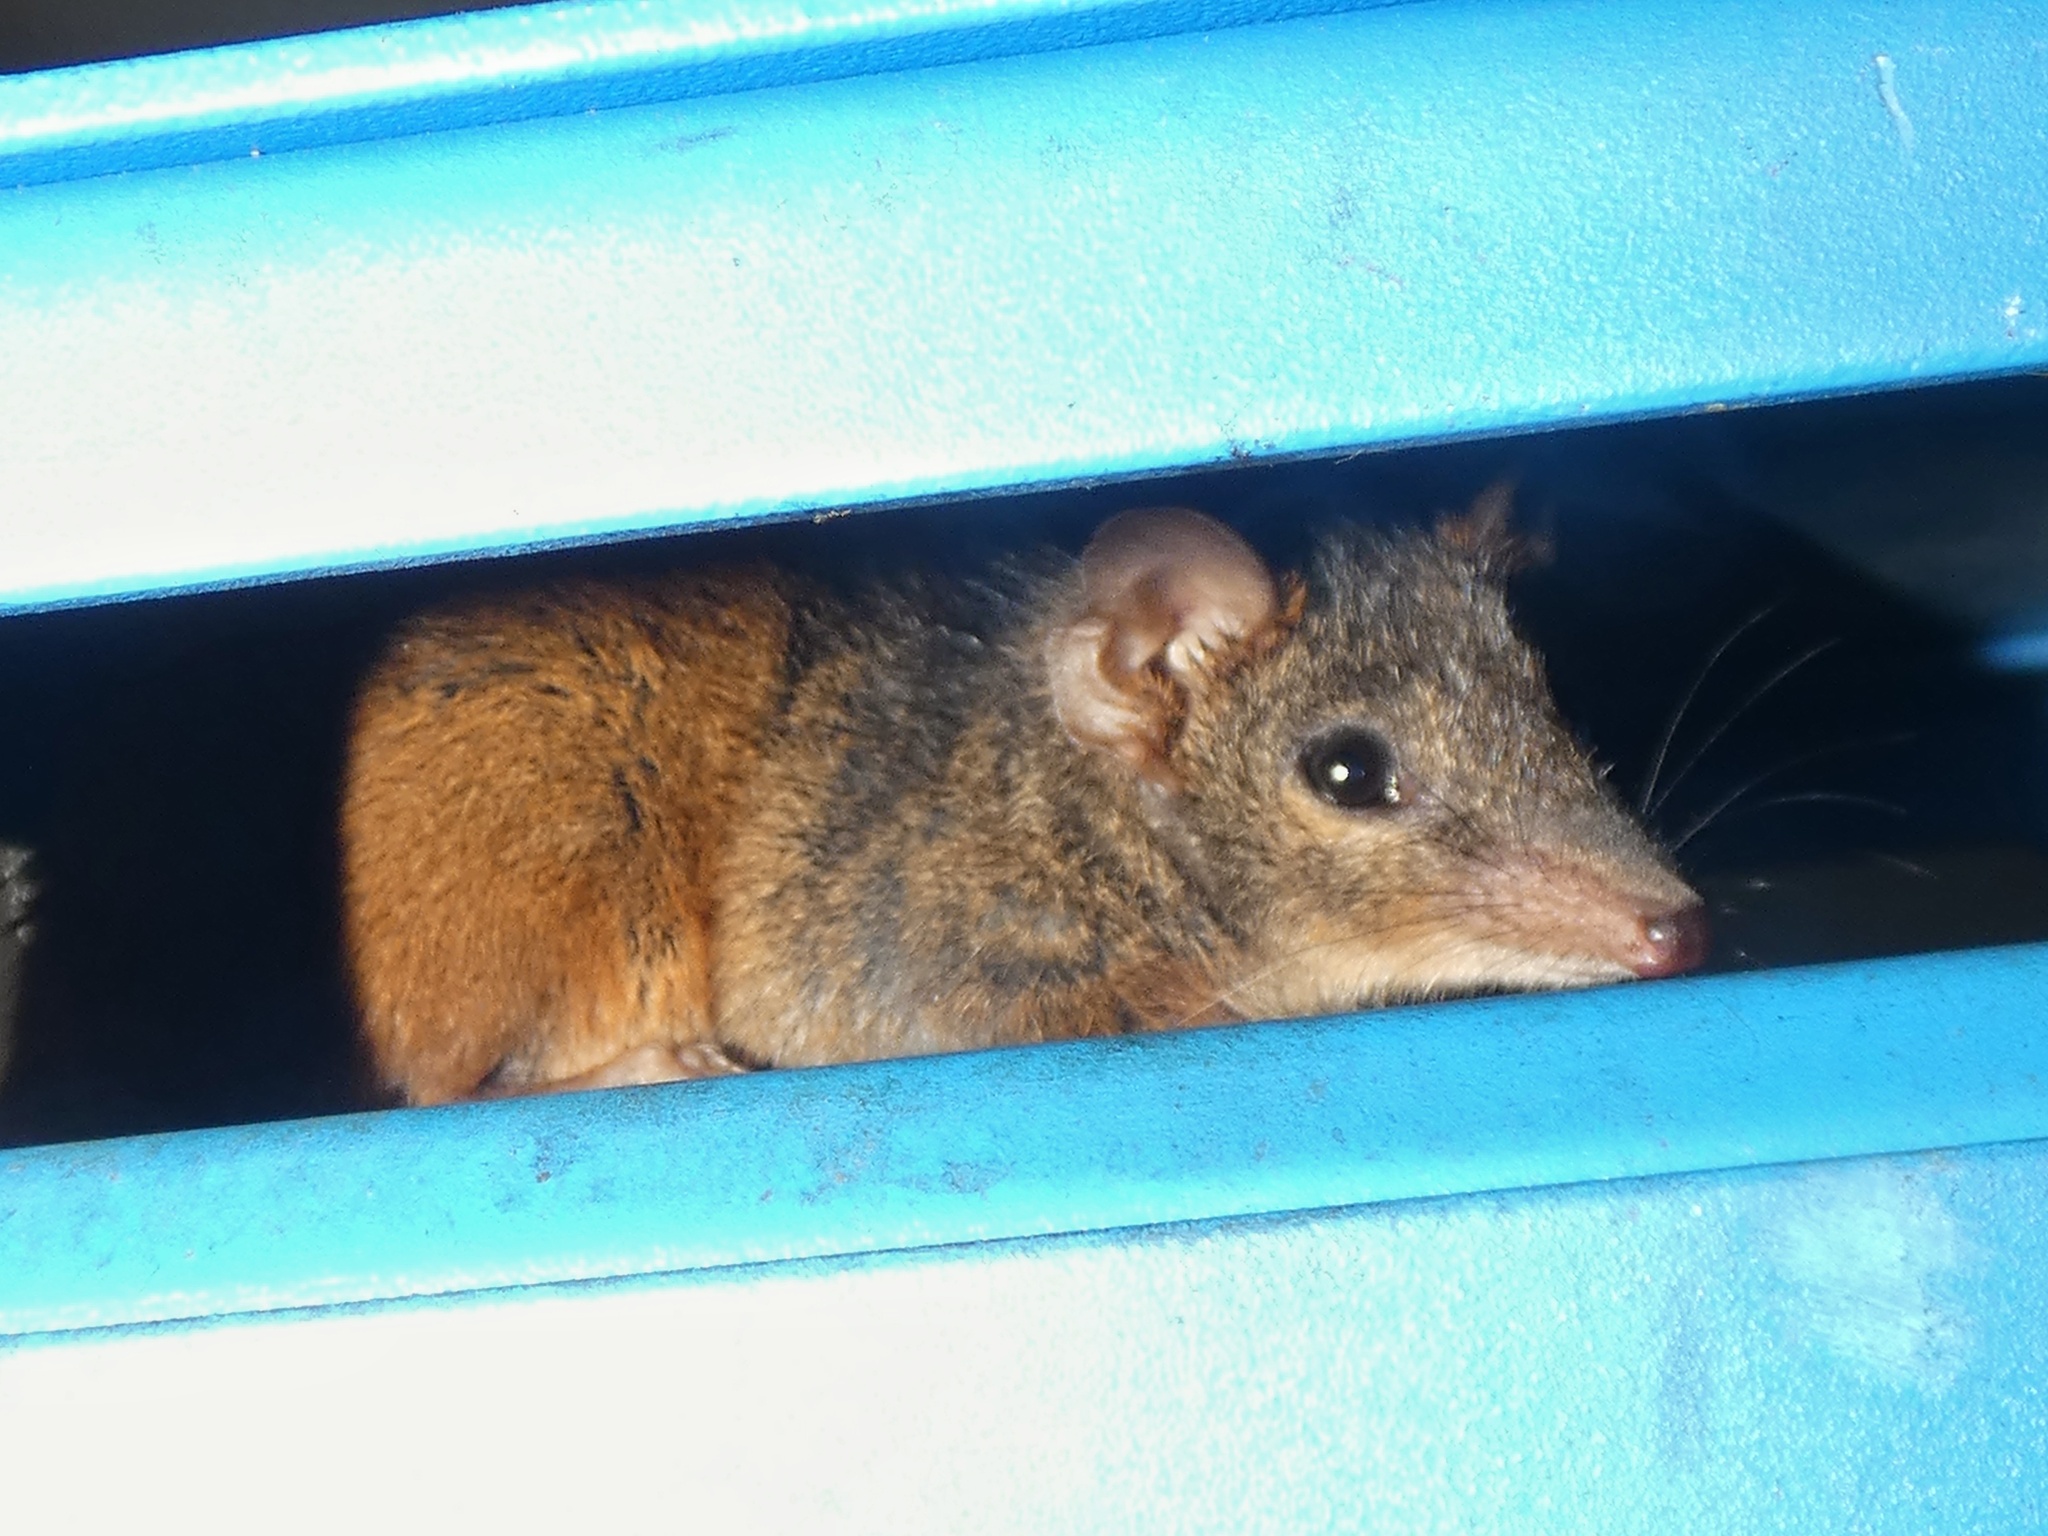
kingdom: Animalia
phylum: Chordata
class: Mammalia
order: Dasyuromorphia
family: Dasyuridae
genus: Antechinus
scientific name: Antechinus flavipes
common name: Yellow-footed antechinus
